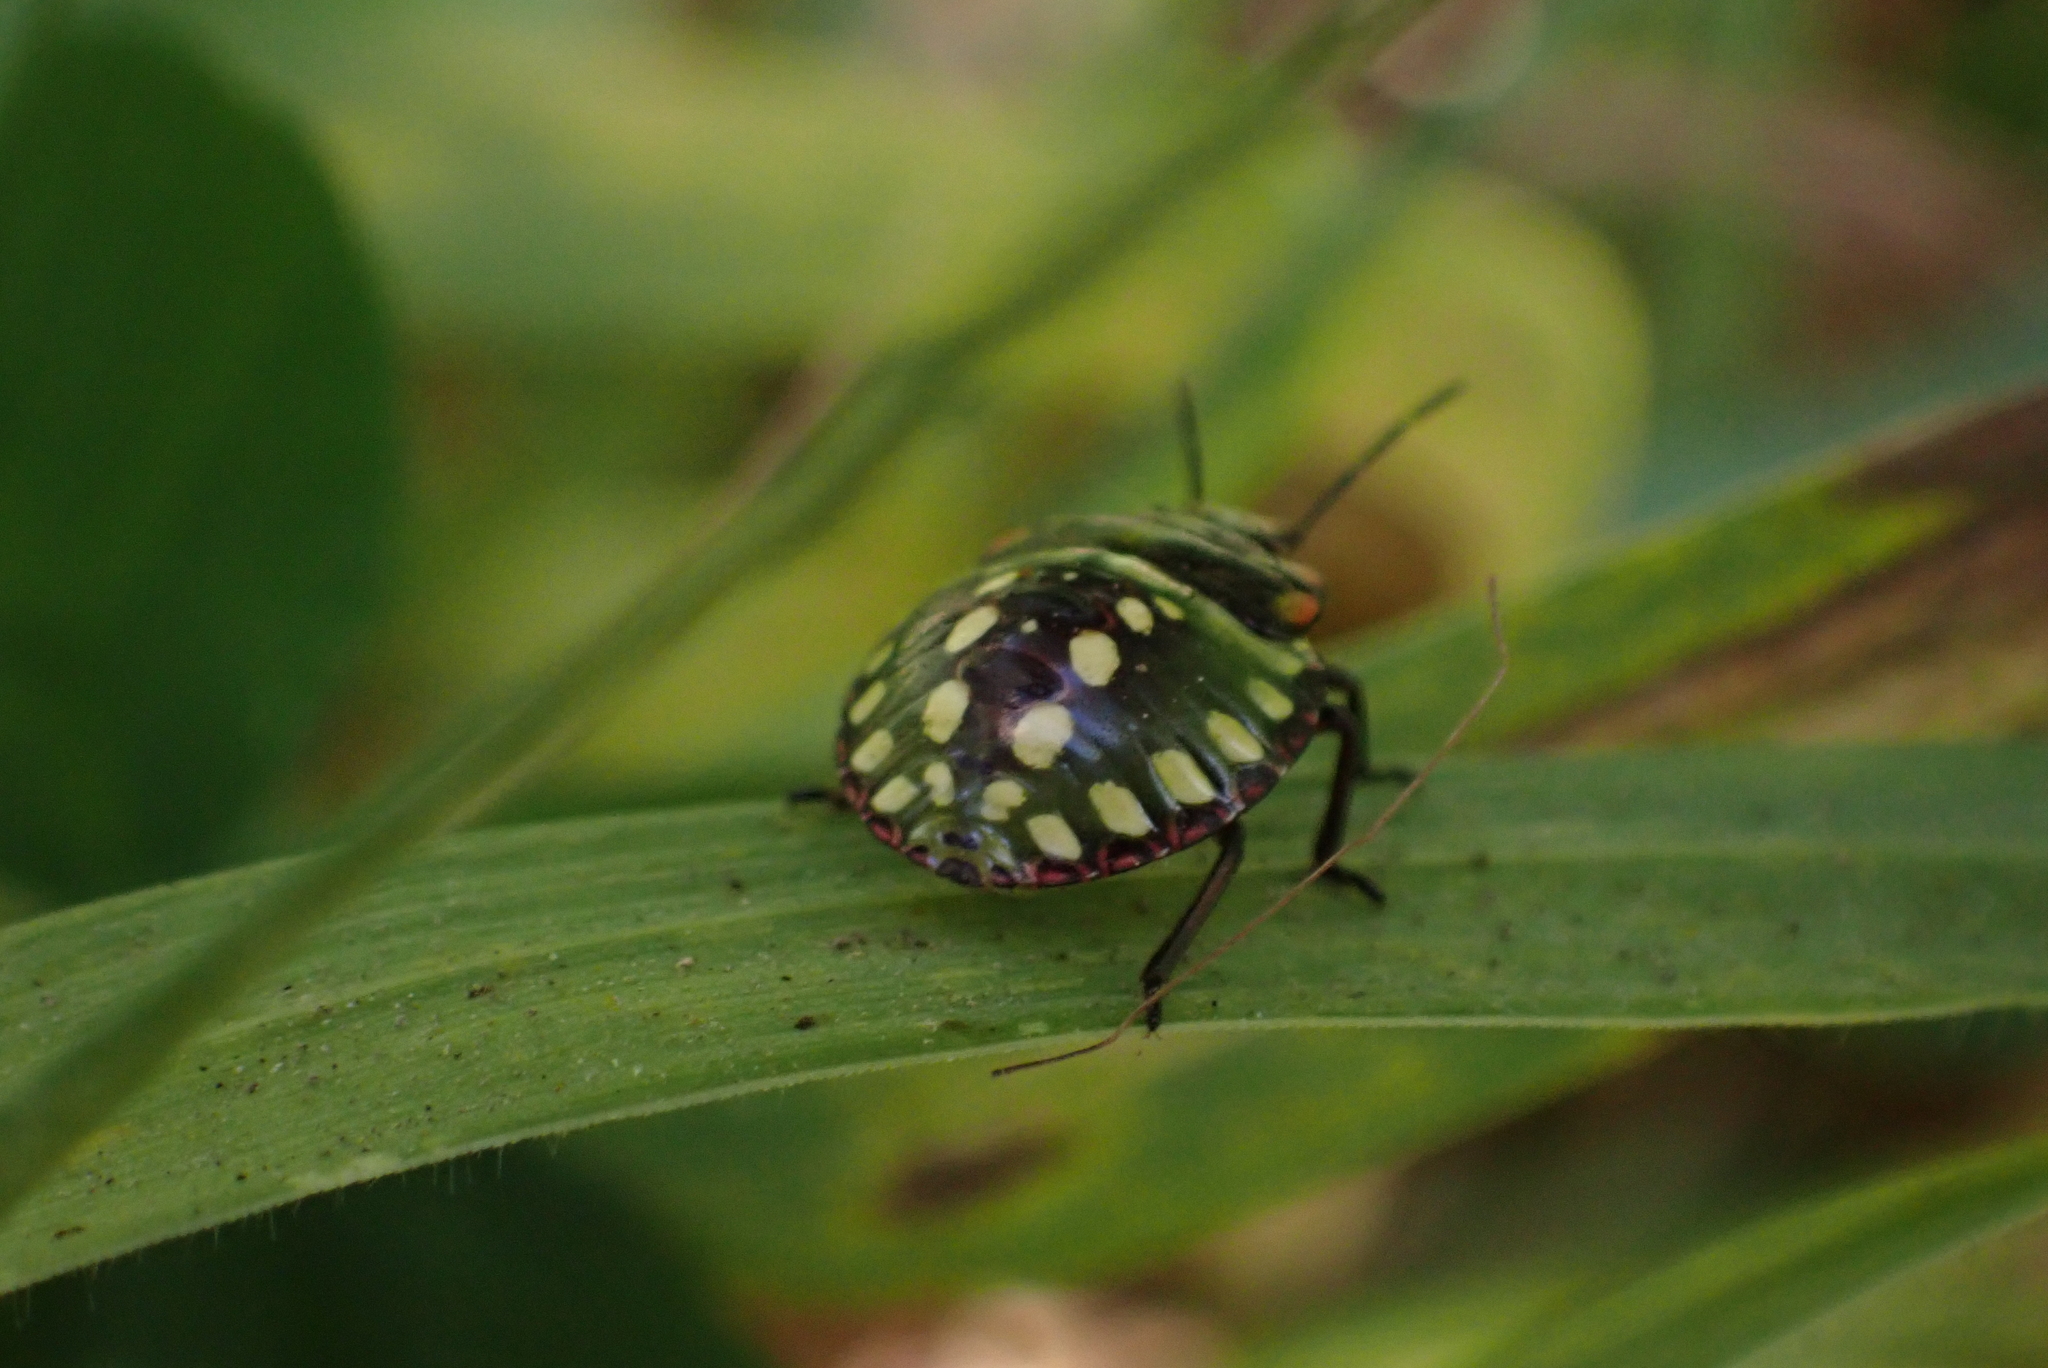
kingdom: Animalia
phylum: Arthropoda
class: Insecta
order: Hemiptera
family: Pentatomidae
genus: Nezara
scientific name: Nezara viridula
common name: Southern green stink bug
